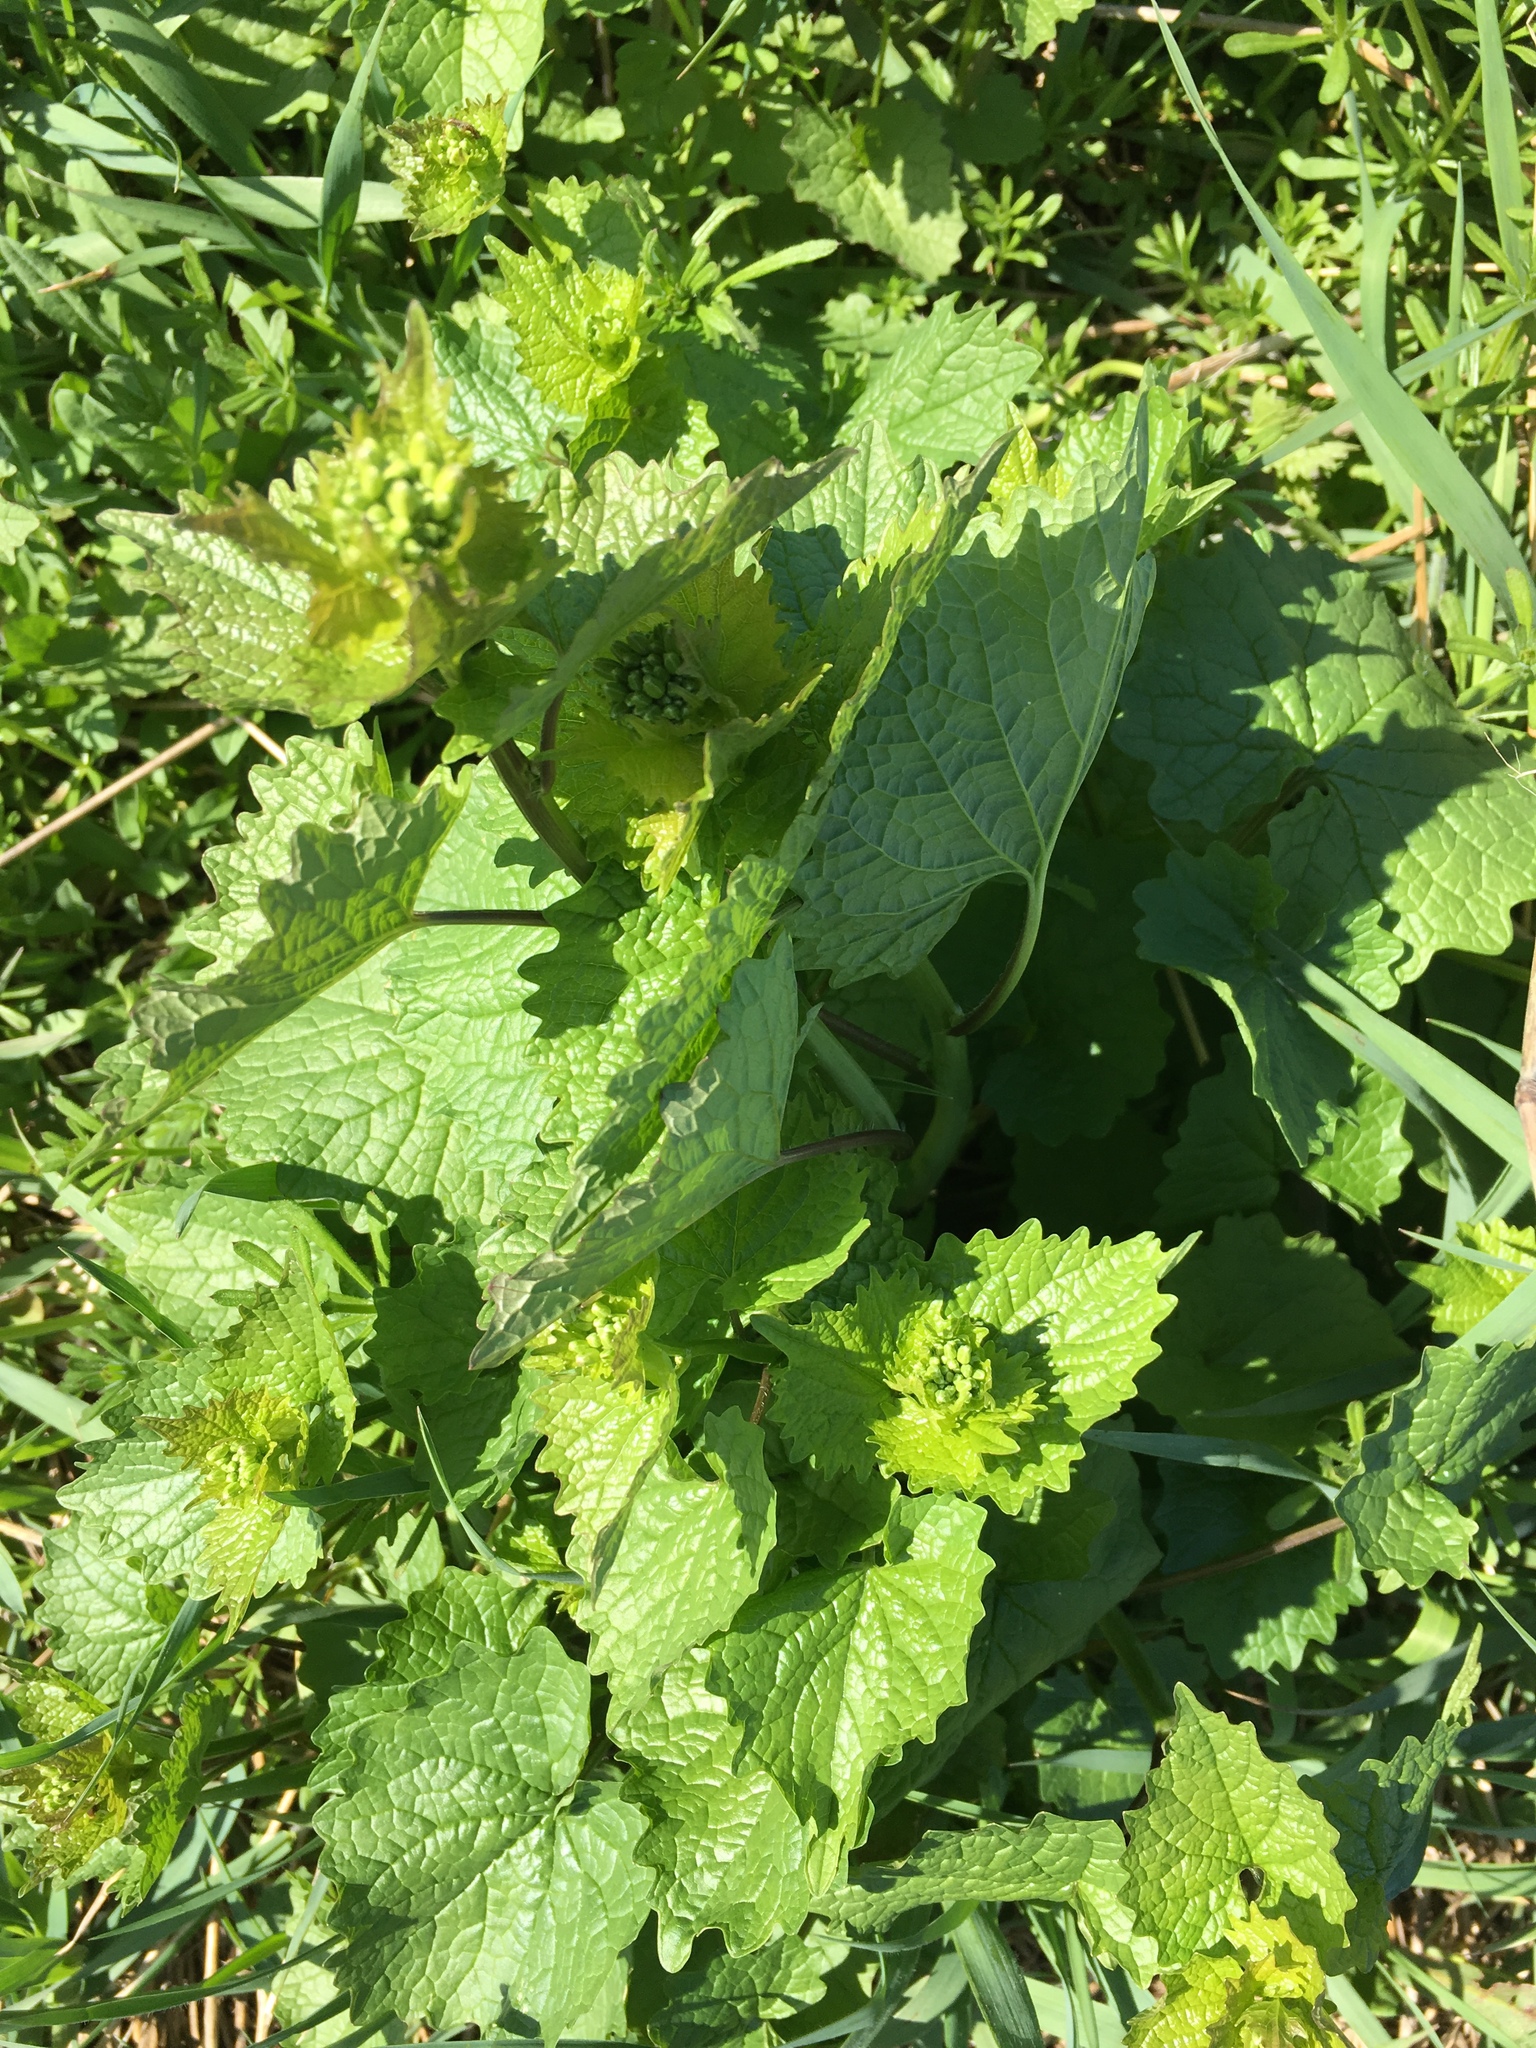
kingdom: Plantae
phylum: Tracheophyta
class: Magnoliopsida
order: Brassicales
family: Brassicaceae
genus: Alliaria
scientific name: Alliaria petiolata
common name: Garlic mustard
